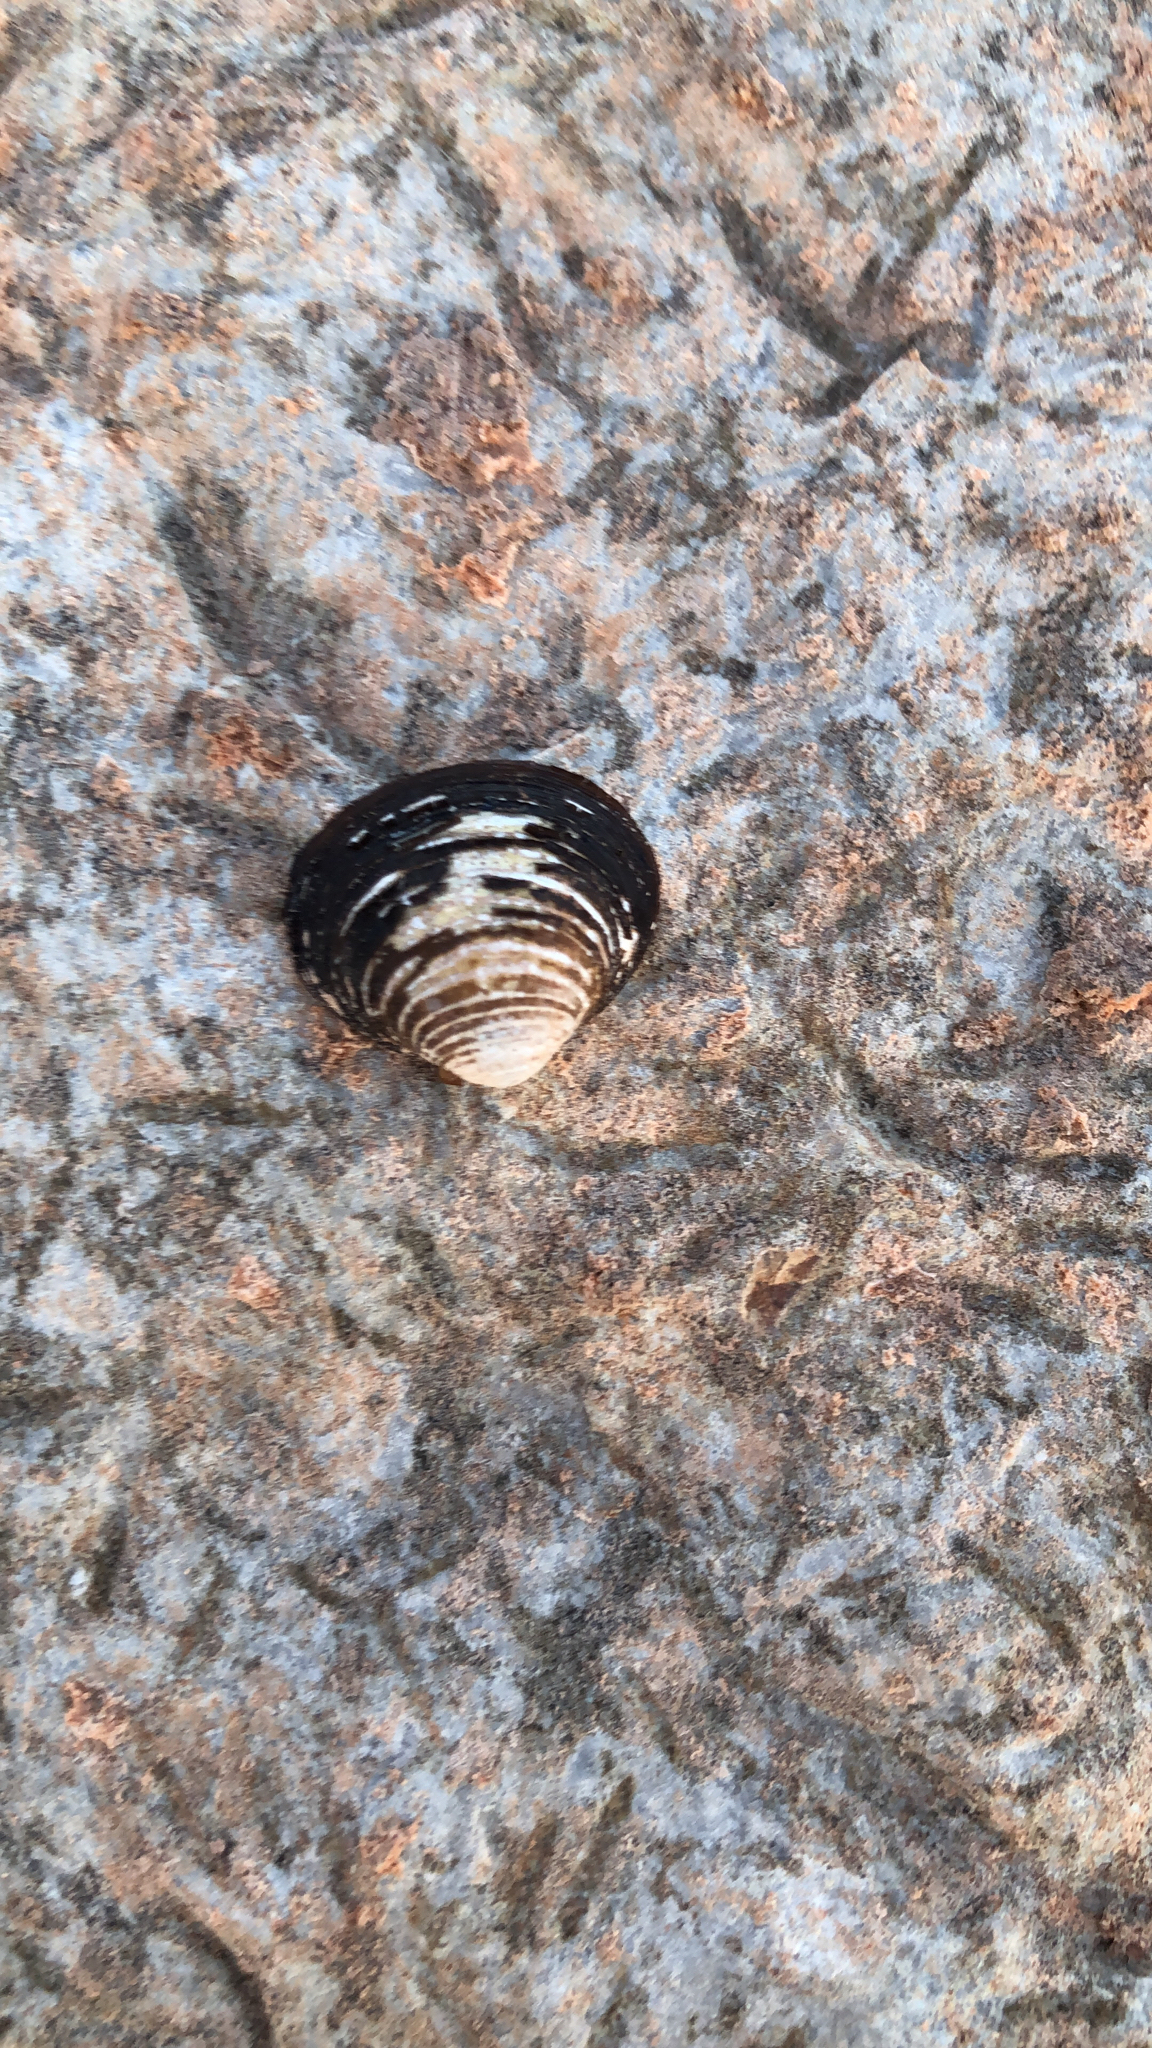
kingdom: Animalia
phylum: Mollusca
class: Bivalvia
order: Venerida
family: Cyrenidae
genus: Corbicula
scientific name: Corbicula fluminea
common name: Asian clam
